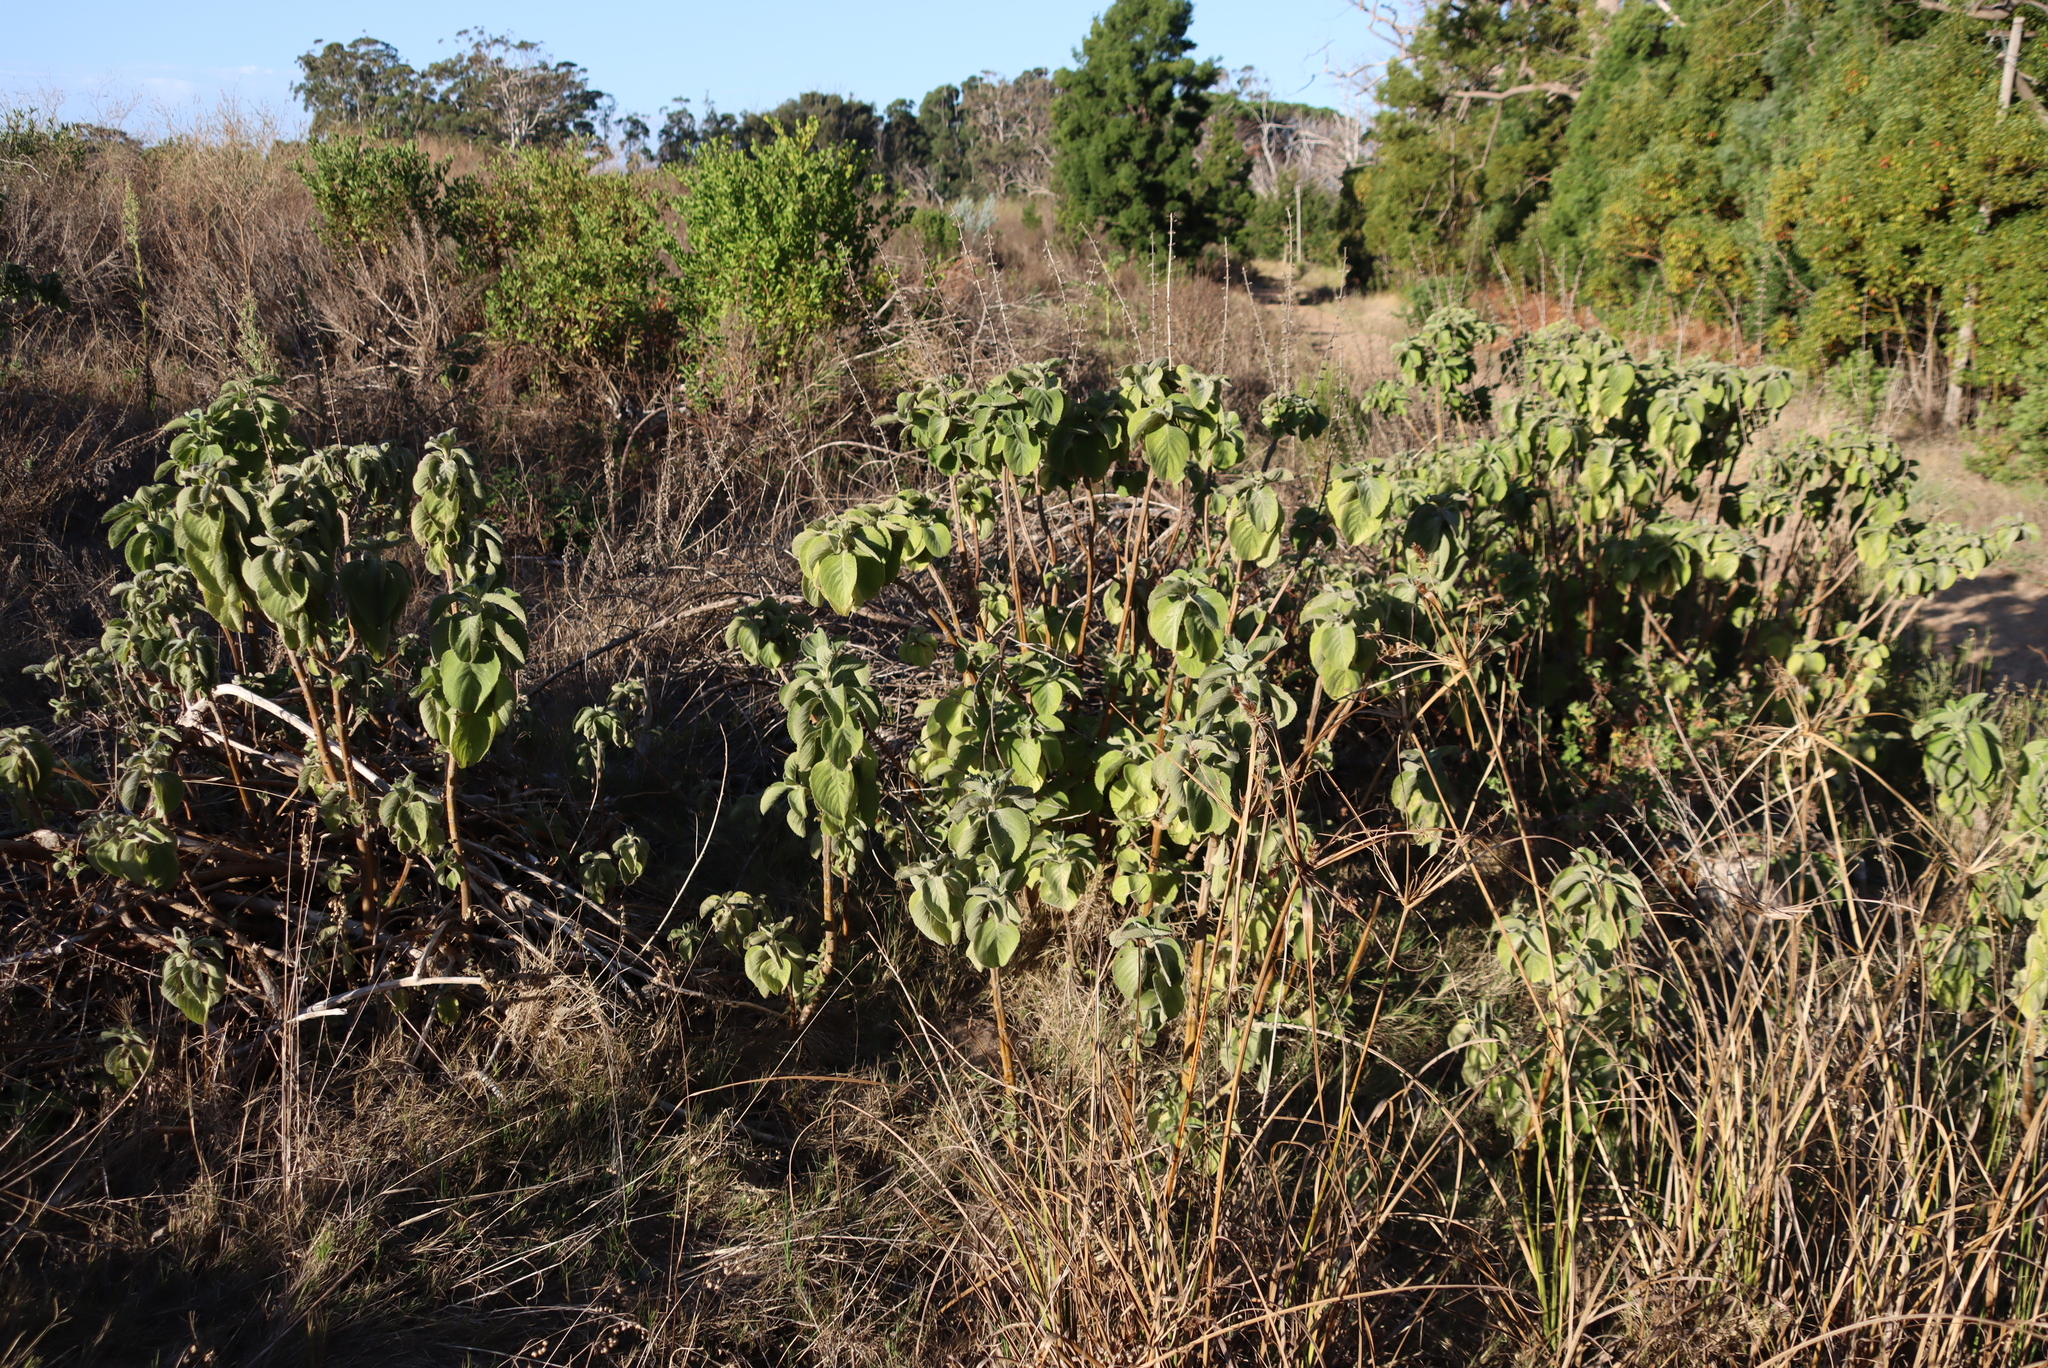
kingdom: Plantae
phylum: Tracheophyta
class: Magnoliopsida
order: Lamiales
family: Lamiaceae
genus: Coleus
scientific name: Coleus barbatus
